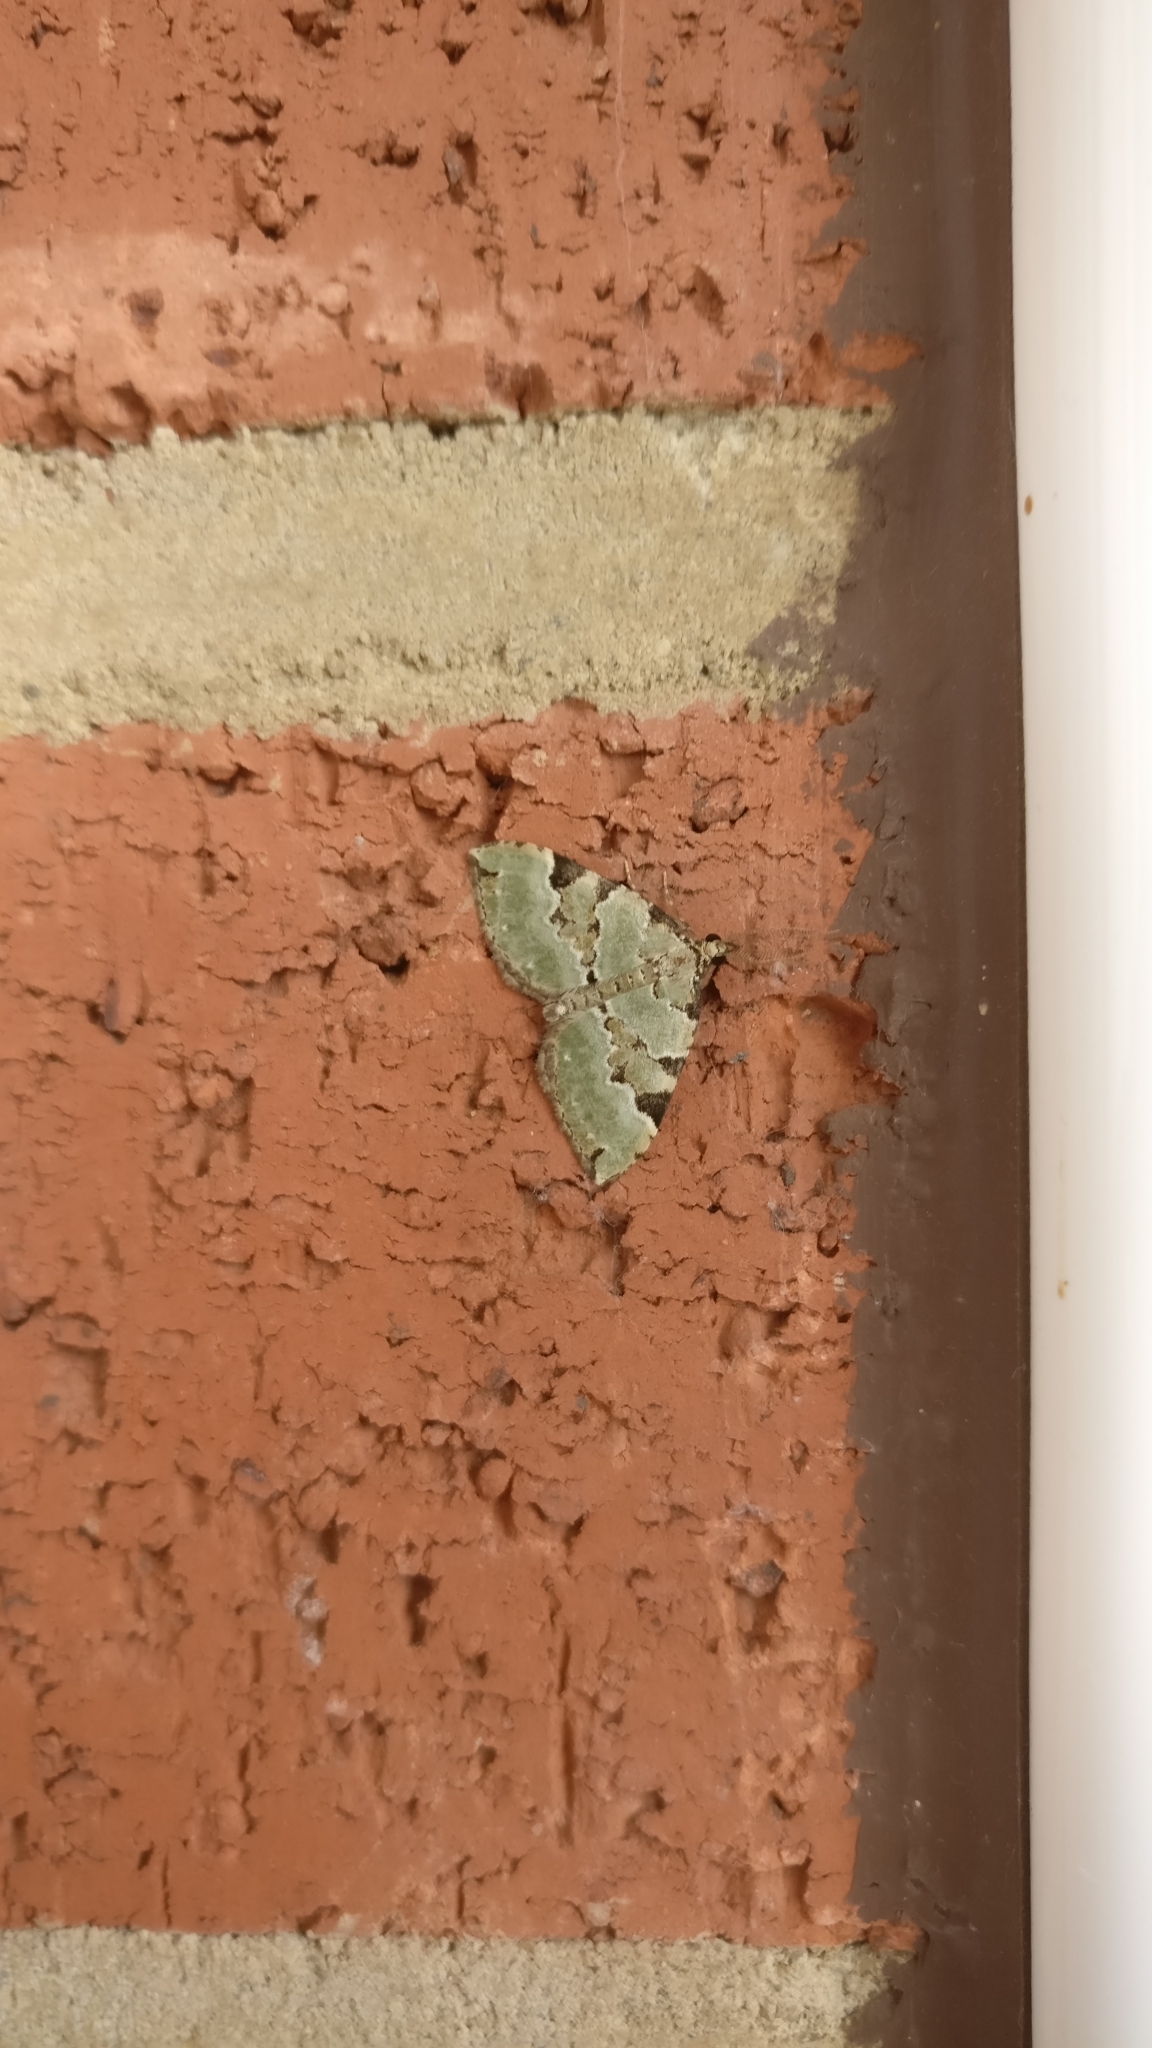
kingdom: Animalia
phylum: Arthropoda
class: Insecta
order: Lepidoptera
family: Geometridae
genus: Colostygia
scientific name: Colostygia pectinataria
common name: Green carpet
